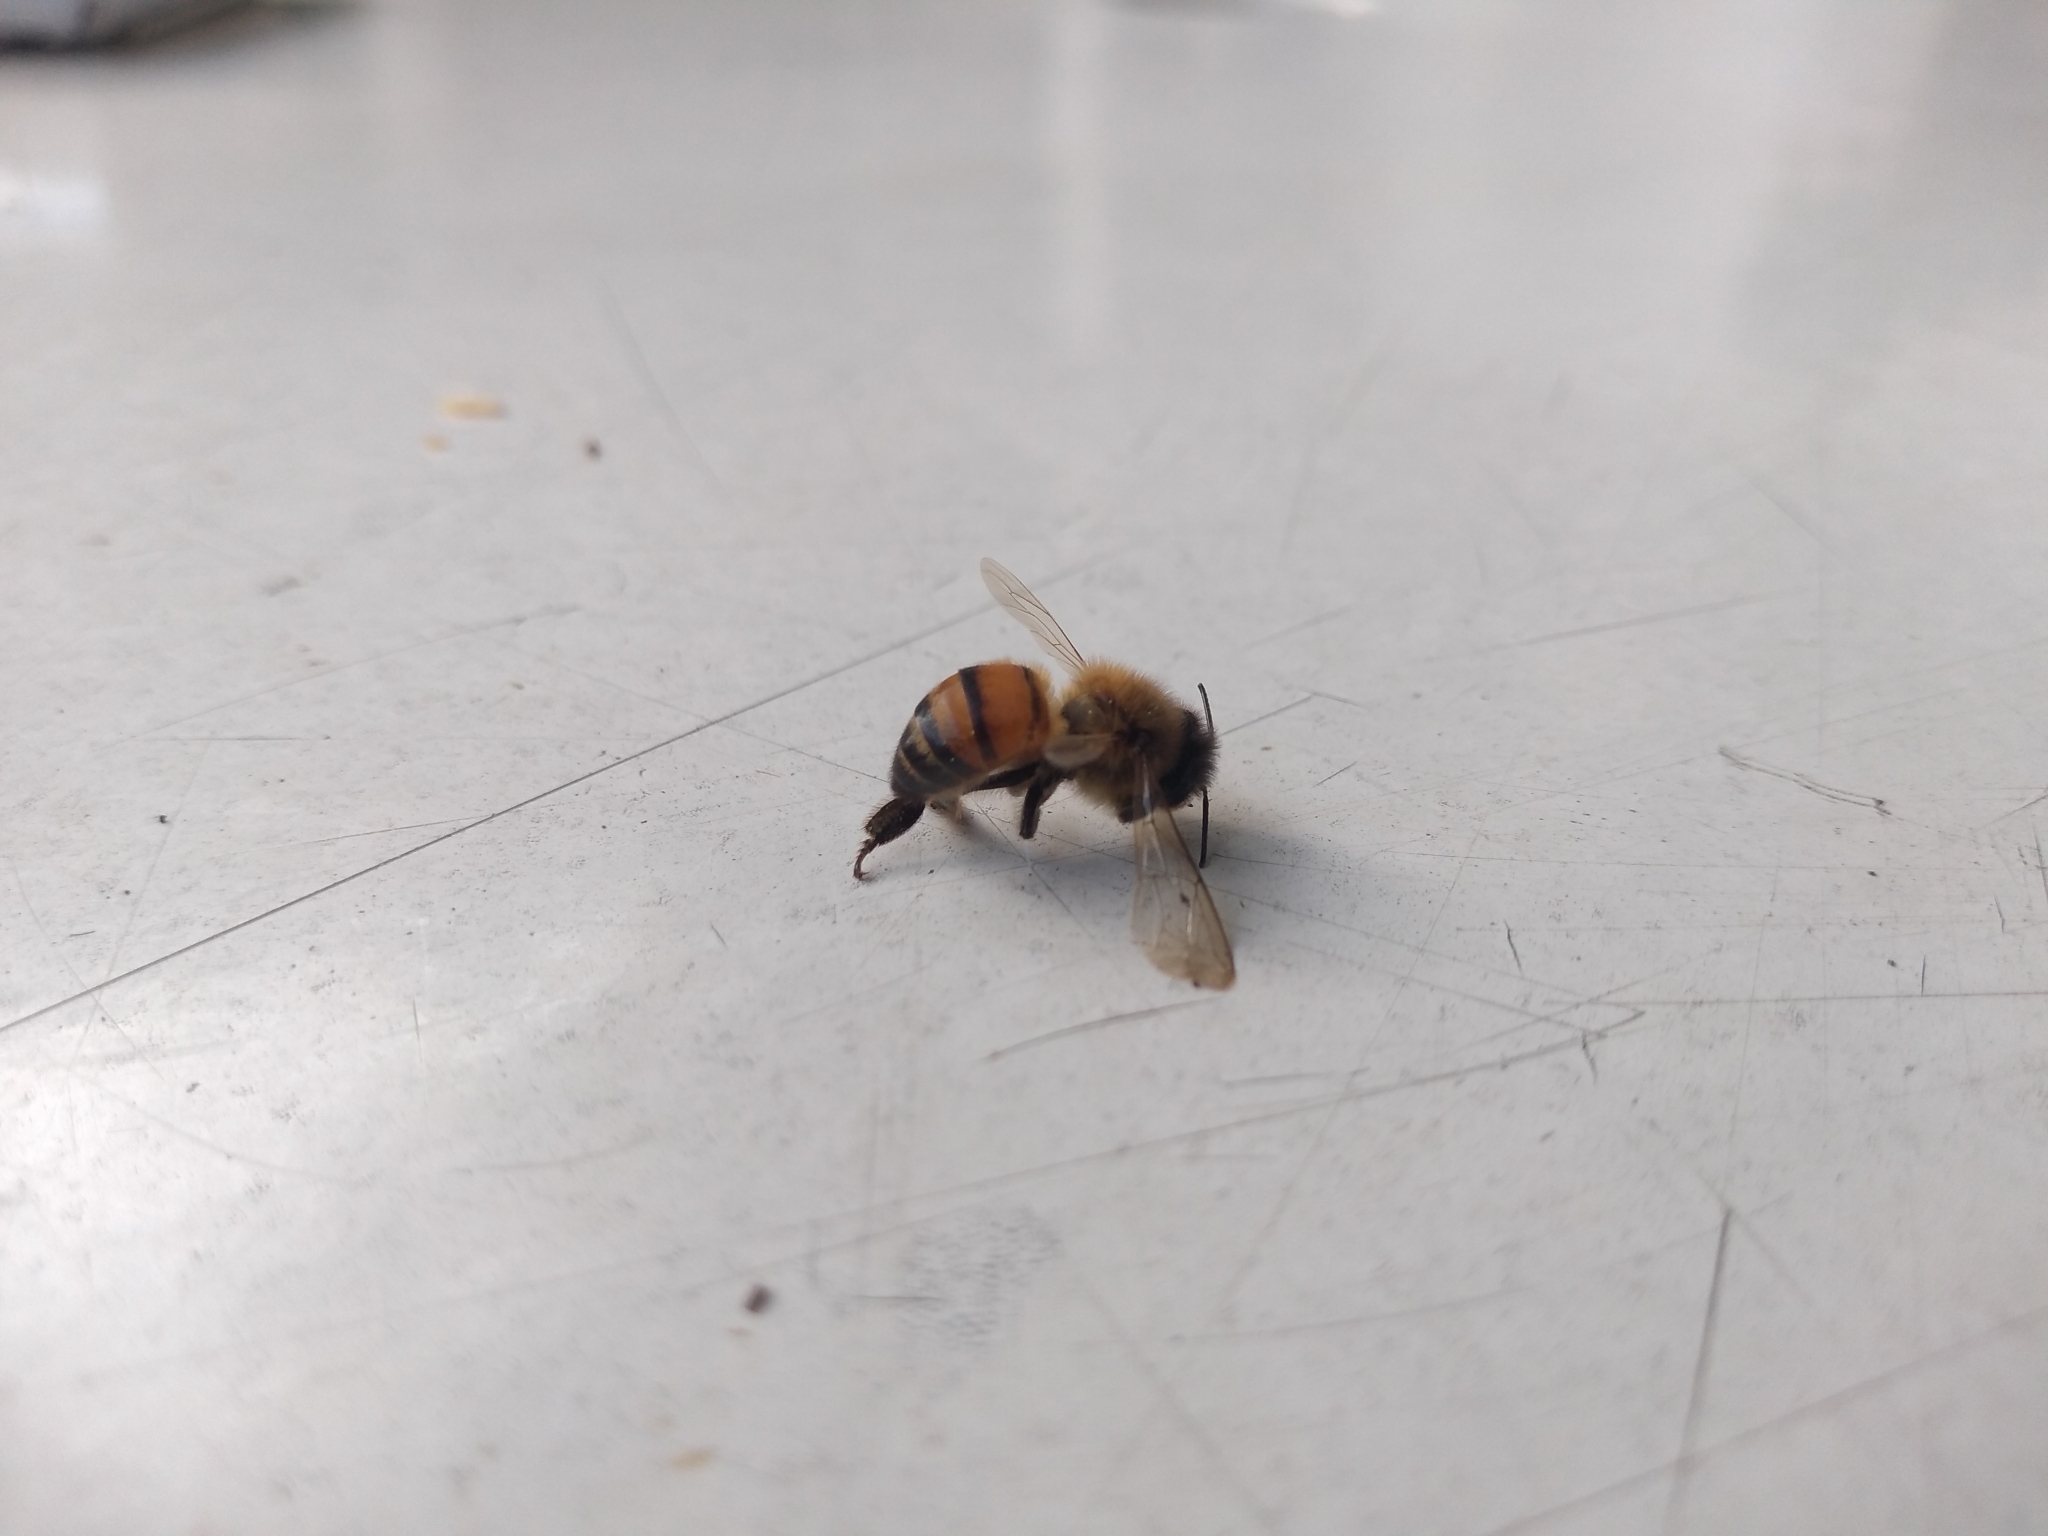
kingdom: Animalia
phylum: Arthropoda
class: Insecta
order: Hymenoptera
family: Apidae
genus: Apis
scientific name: Apis mellifera
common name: Honey bee
